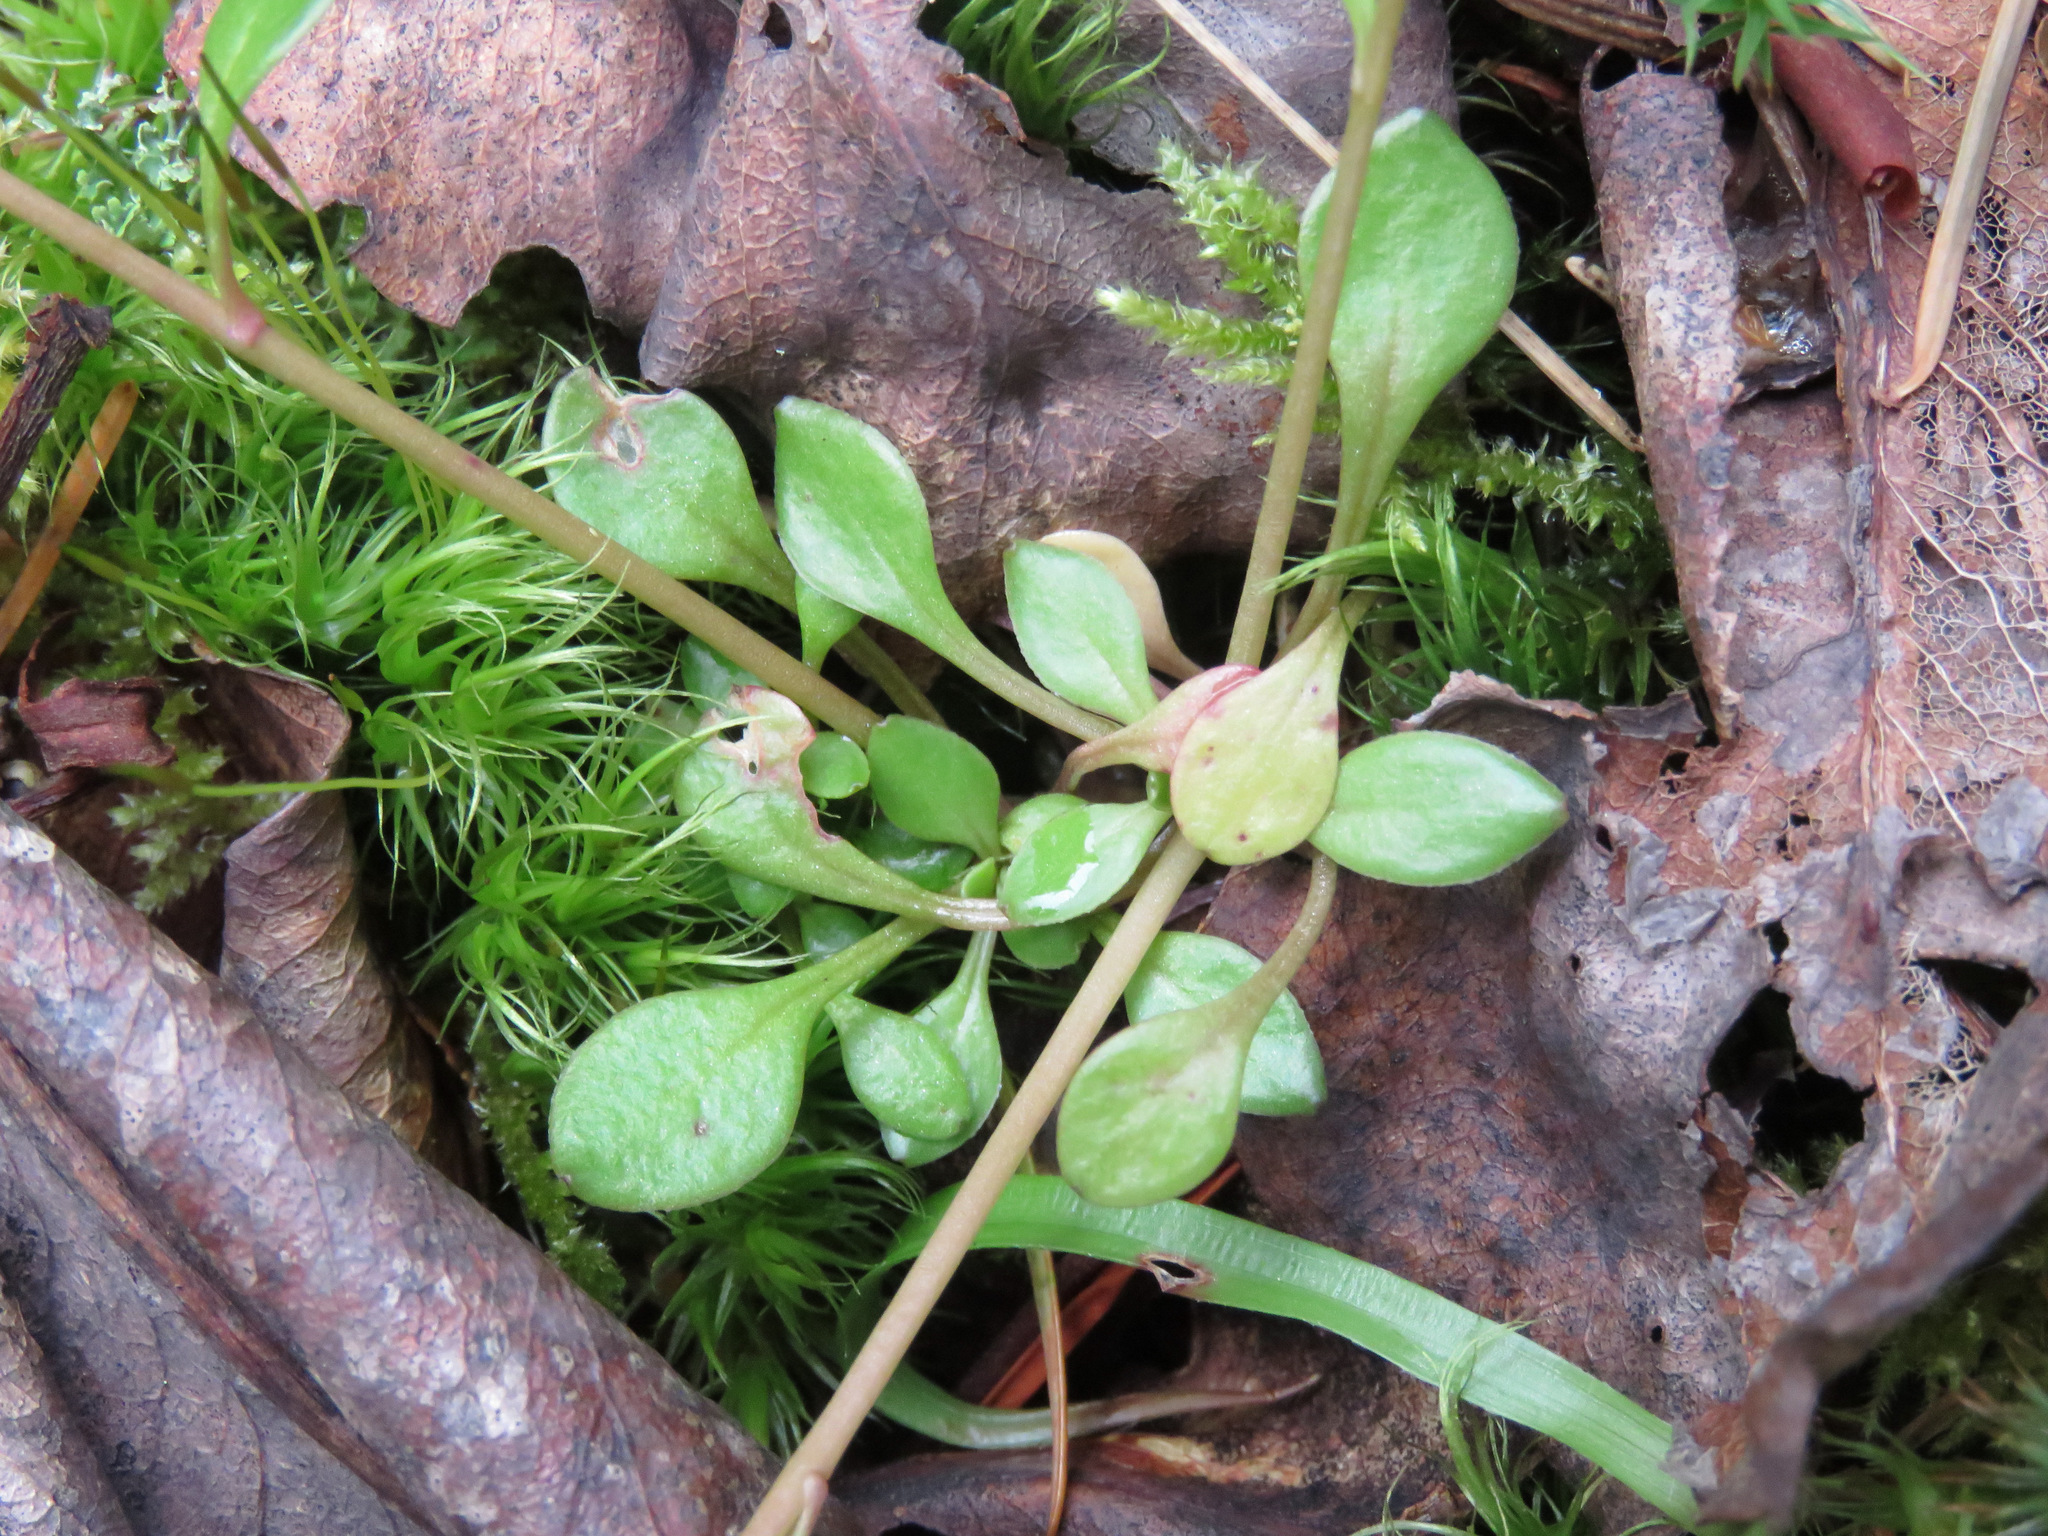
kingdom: Plantae
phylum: Tracheophyta
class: Magnoliopsida
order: Caryophyllales
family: Montiaceae
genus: Montia
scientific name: Montia parvifolia
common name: Small-leaved blinks
